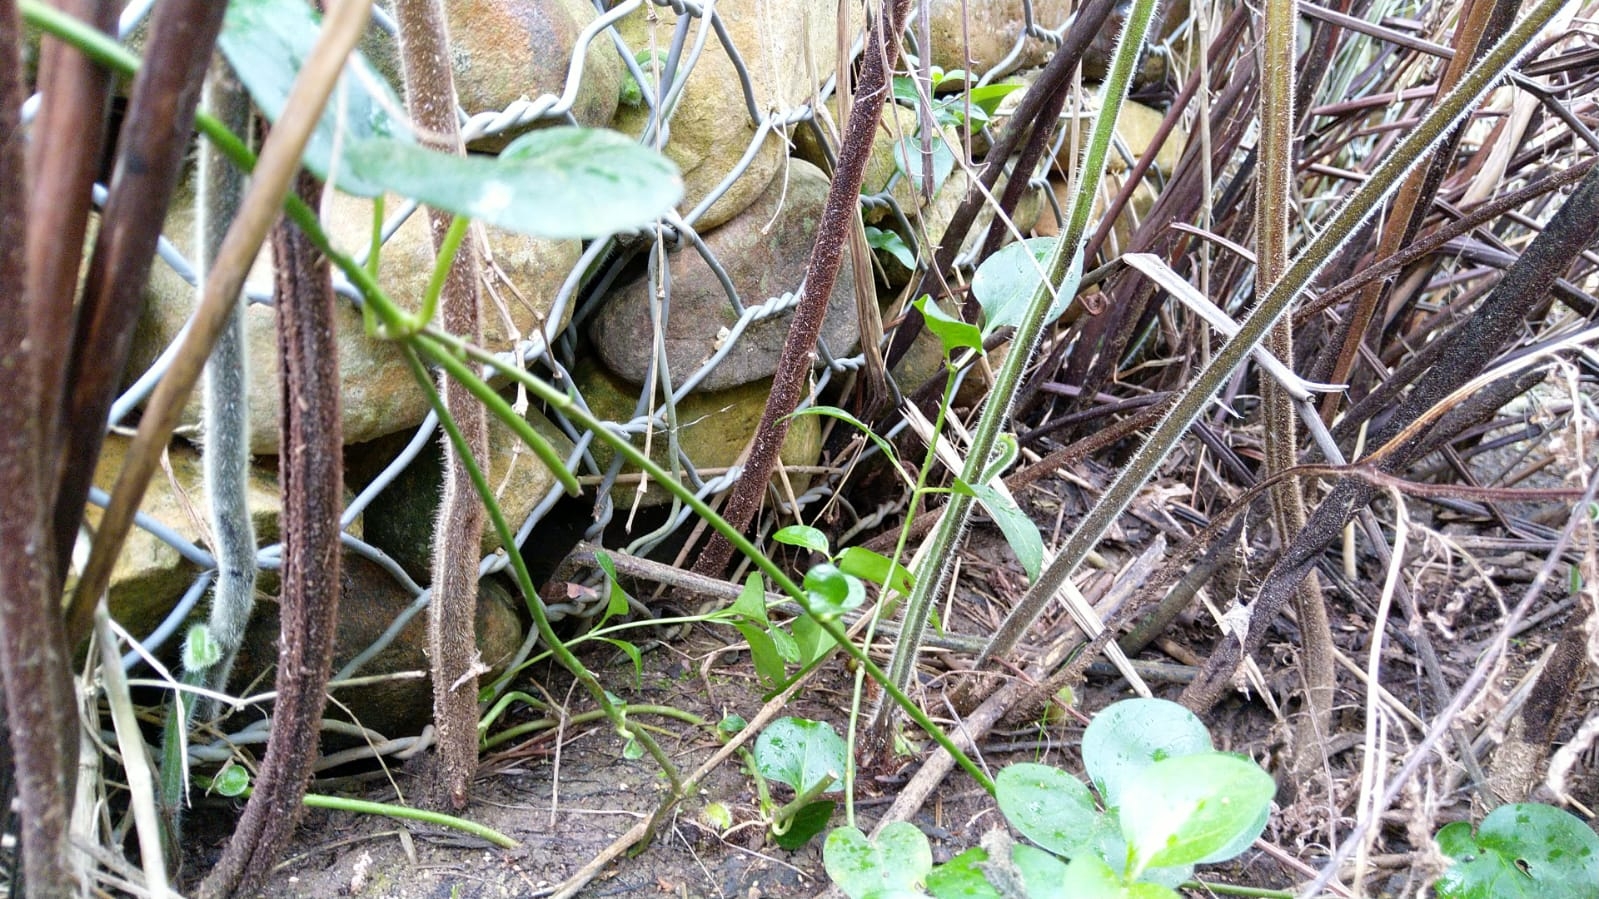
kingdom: Plantae
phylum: Tracheophyta
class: Polypodiopsida
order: Polypodiales
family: Dennstaedtiaceae
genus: Hypolepis
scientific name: Hypolepis rugosula
